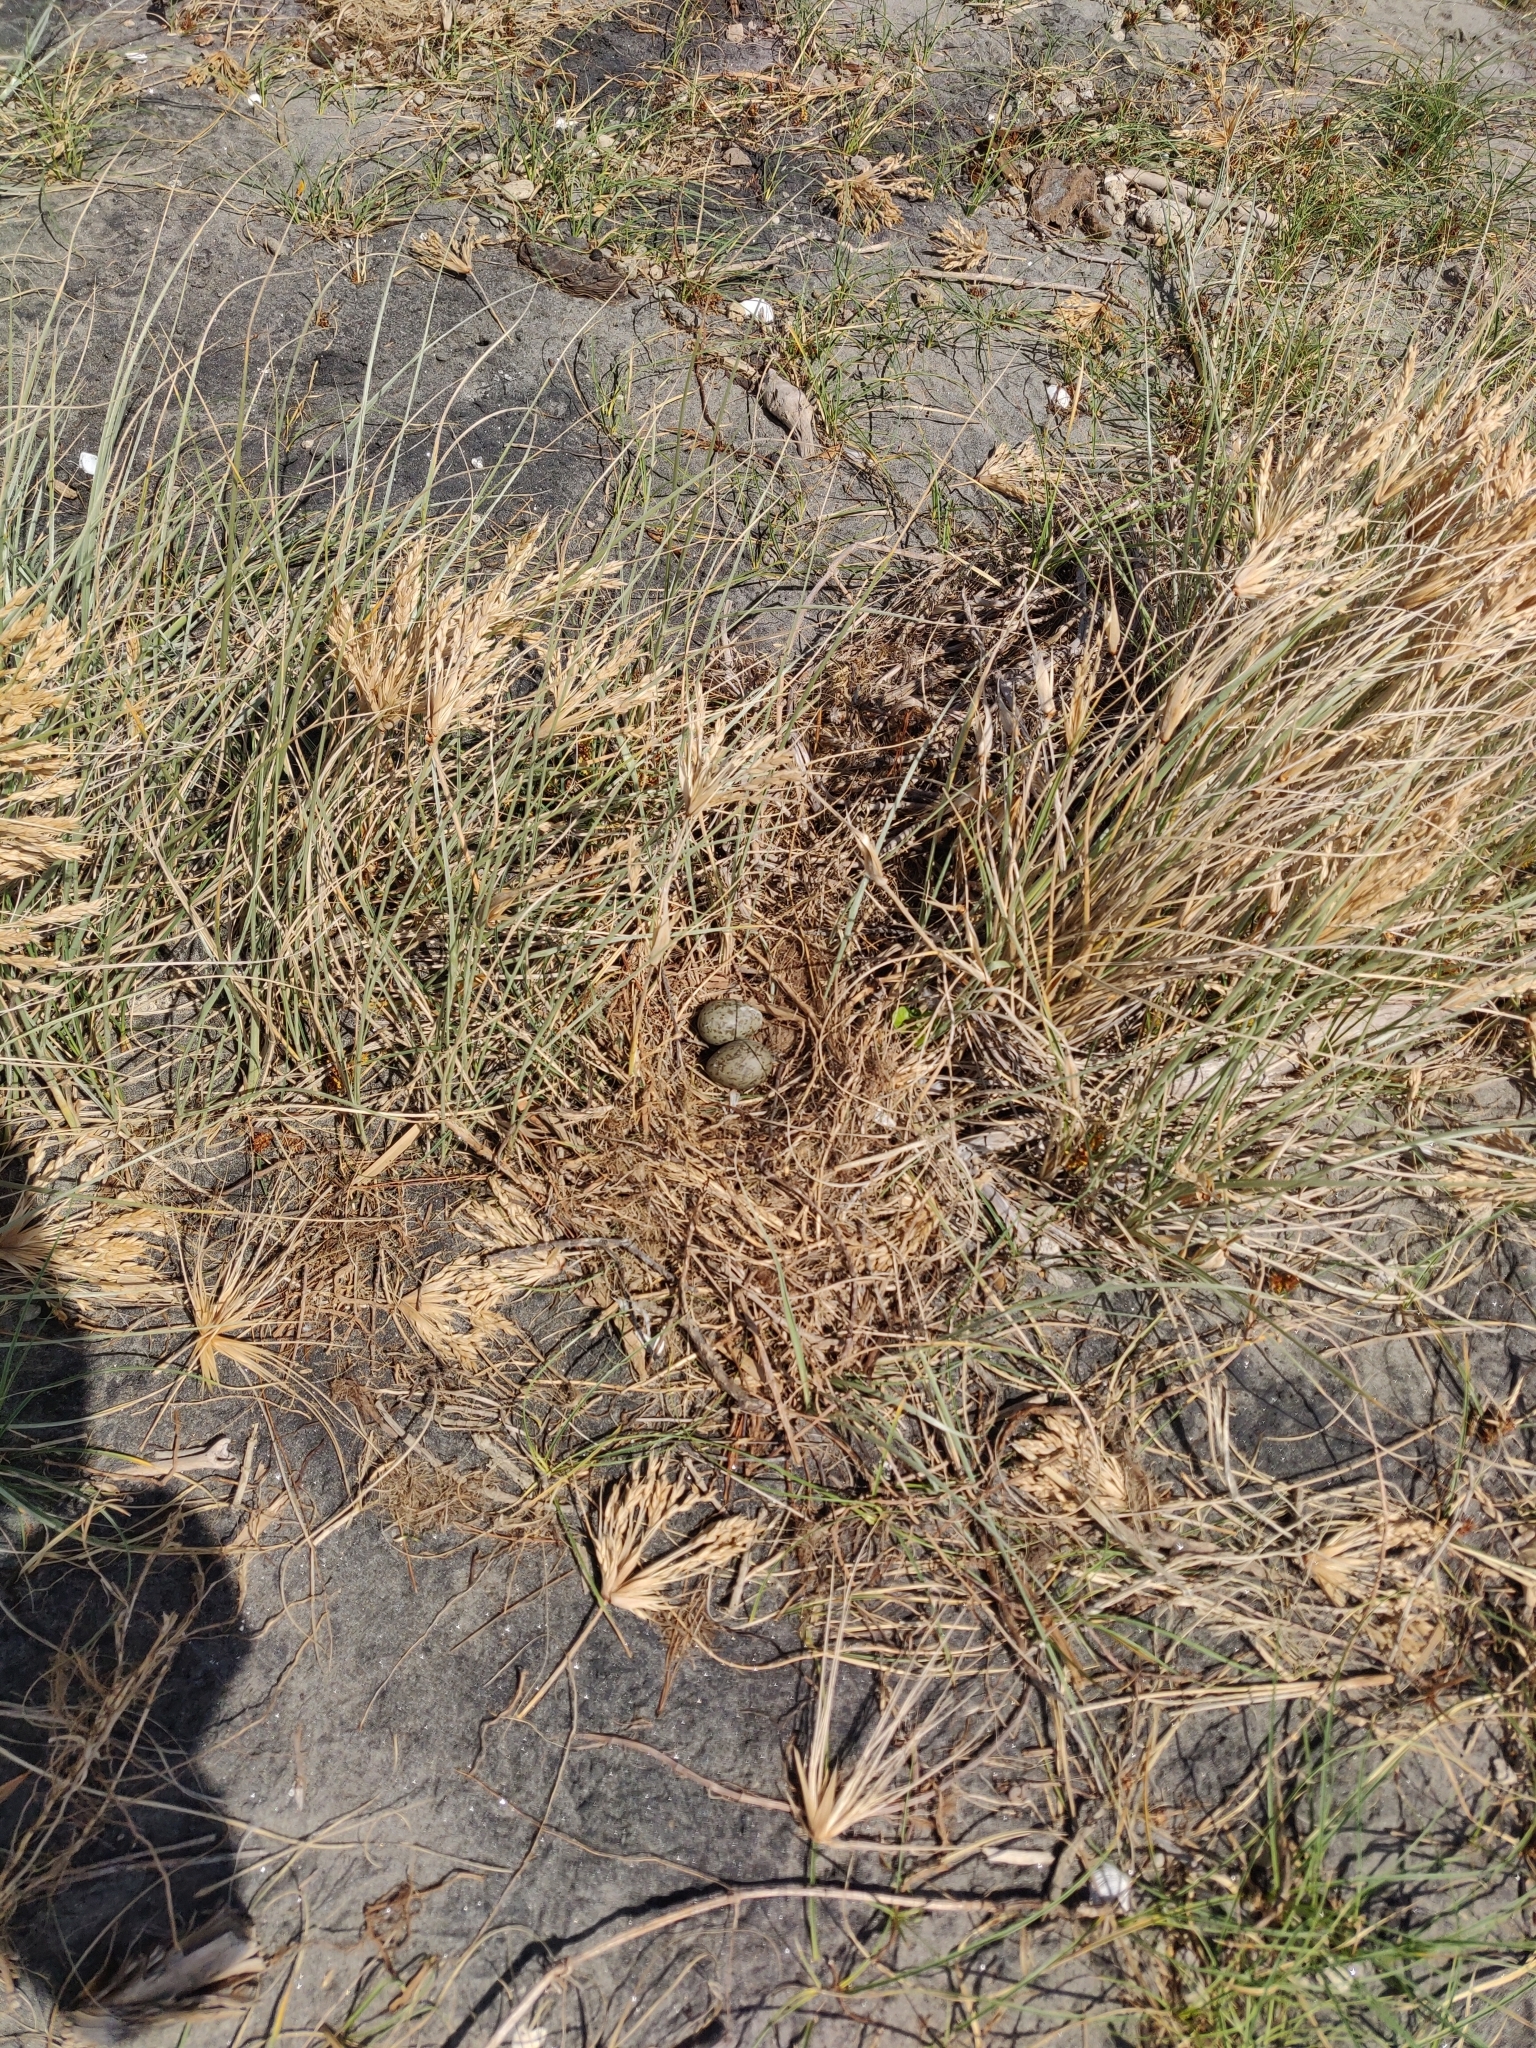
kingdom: Animalia
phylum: Chordata
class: Aves
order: Charadriiformes
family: Haematopodidae
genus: Haematopus
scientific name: Haematopus unicolor
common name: Variable oystercatcher
